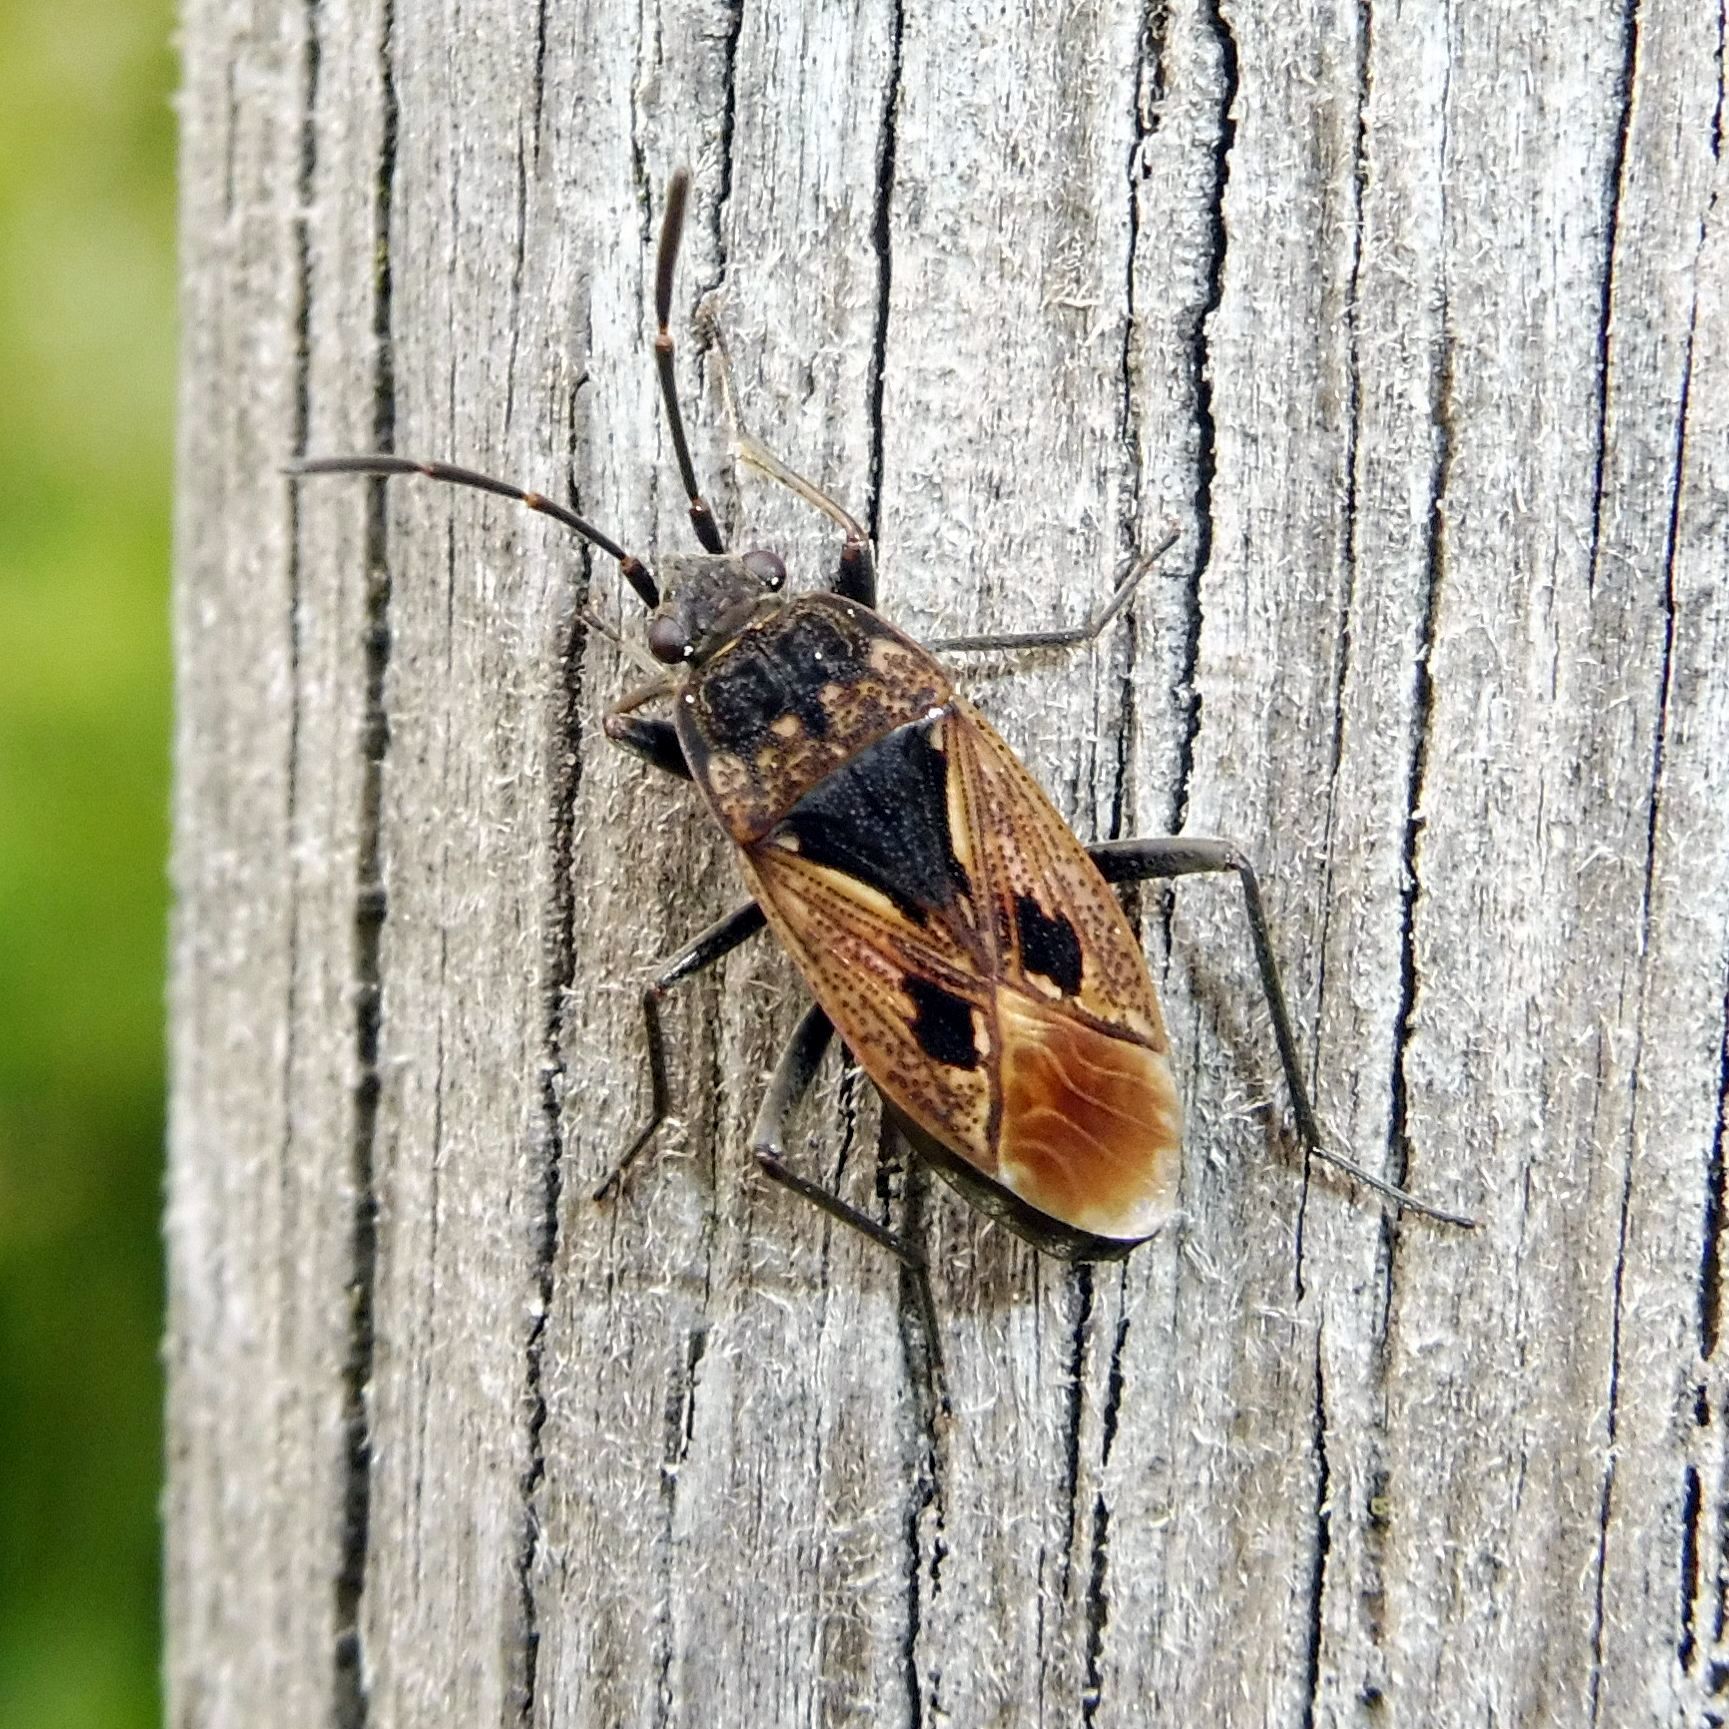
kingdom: Animalia
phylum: Arthropoda
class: Insecta
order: Hemiptera
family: Rhyparochromidae
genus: Rhyparochromus
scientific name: Rhyparochromus pini
